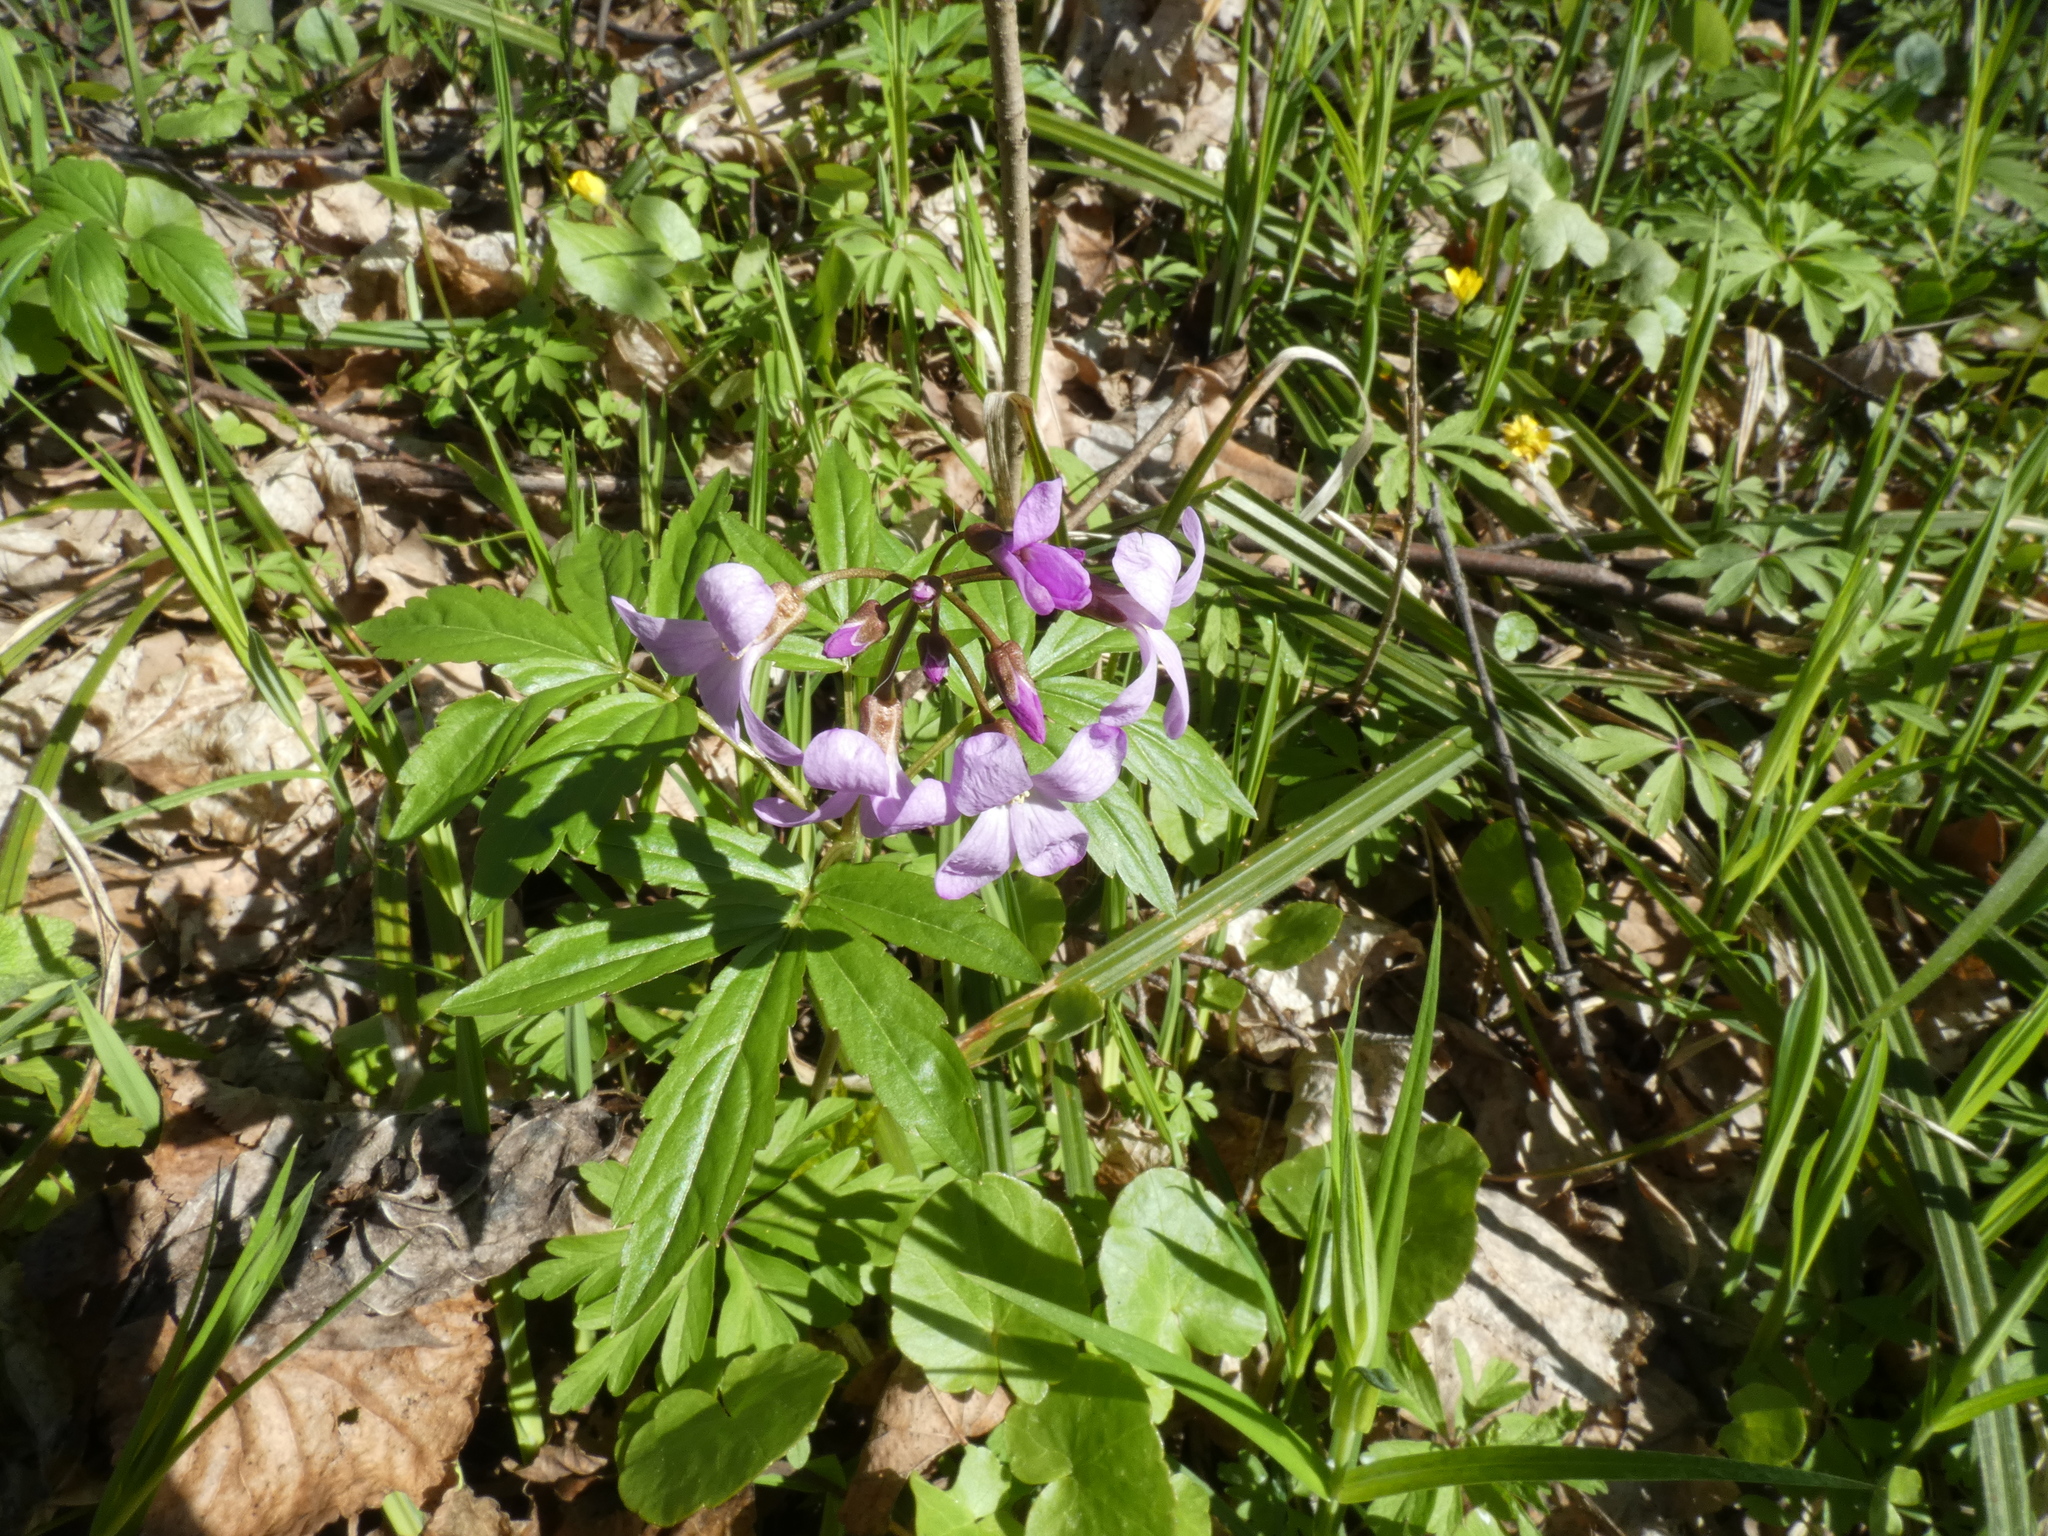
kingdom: Plantae
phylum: Tracheophyta
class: Magnoliopsida
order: Brassicales
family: Brassicaceae
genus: Cardamine
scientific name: Cardamine quinquefolia
